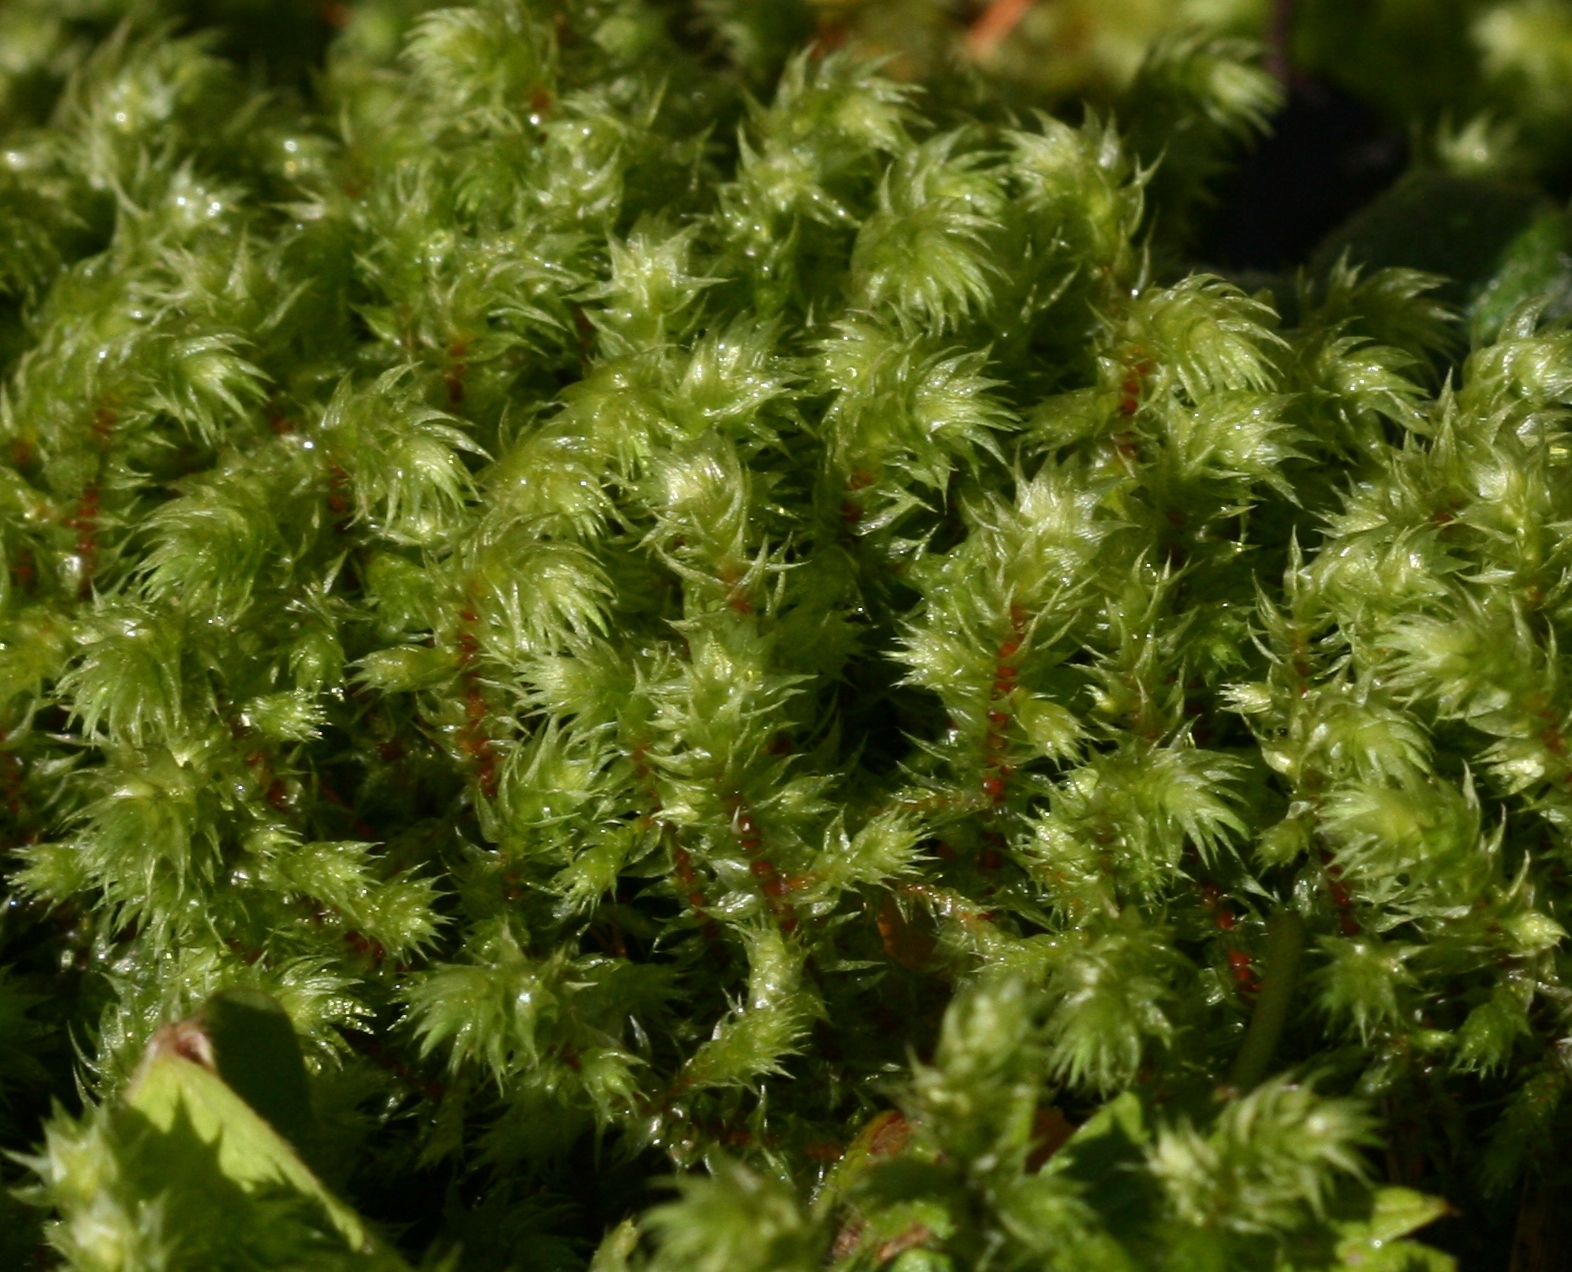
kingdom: Plantae
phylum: Bryophyta
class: Bryopsida
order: Hypnales
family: Hylocomiaceae
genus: Hylocomiadelphus
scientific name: Hylocomiadelphus triquetrus
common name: Rough goose neck moss
